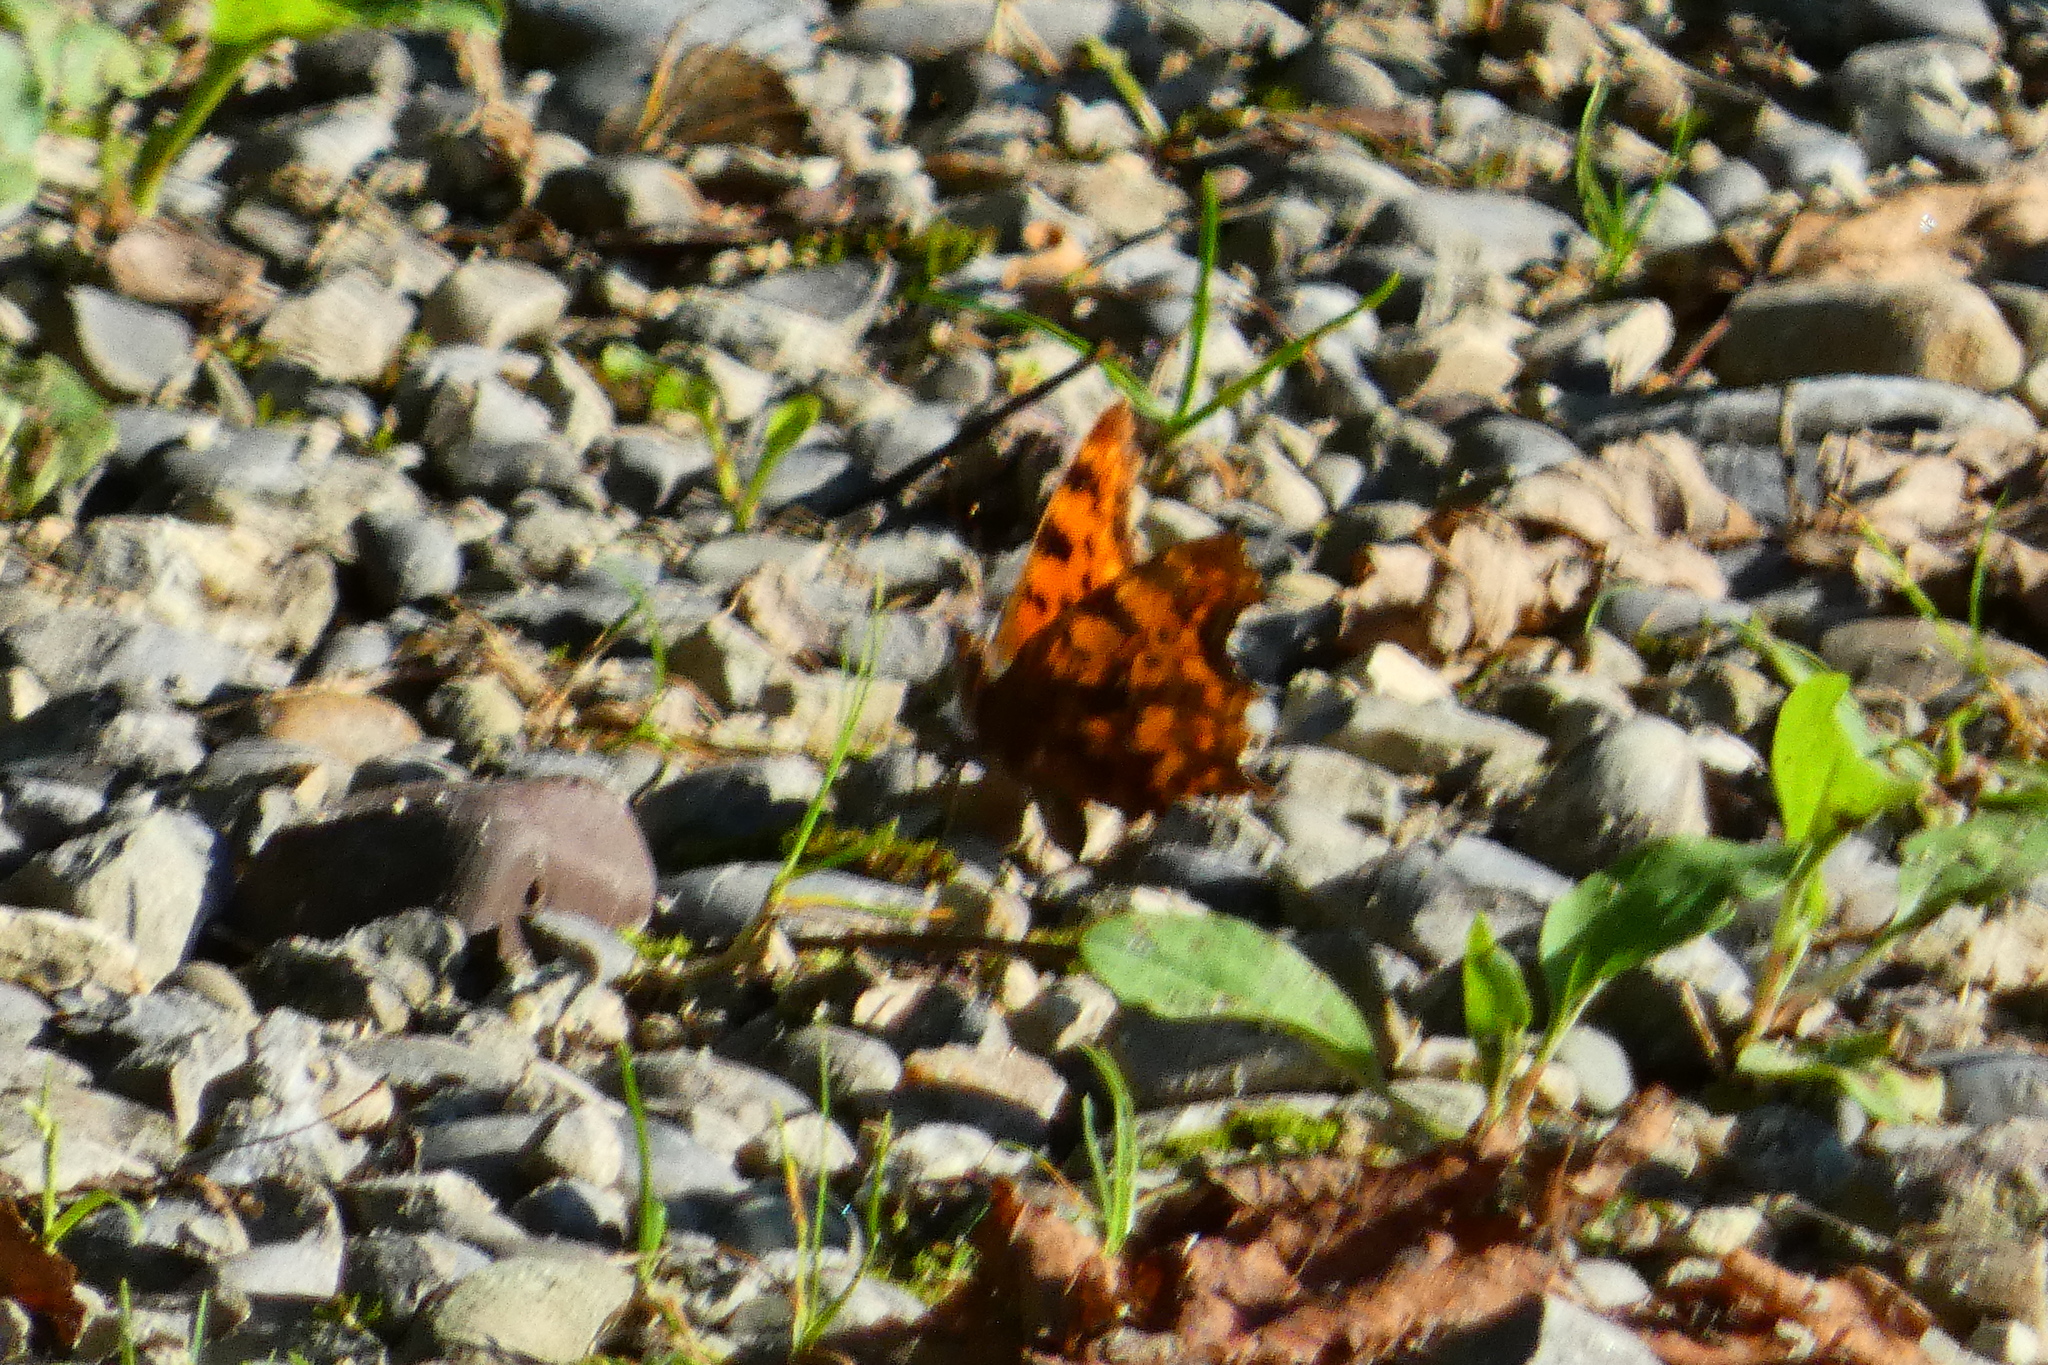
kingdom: Animalia
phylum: Arthropoda
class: Insecta
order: Lepidoptera
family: Nymphalidae
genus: Polygonia
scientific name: Polygonia c-album
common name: Comma
